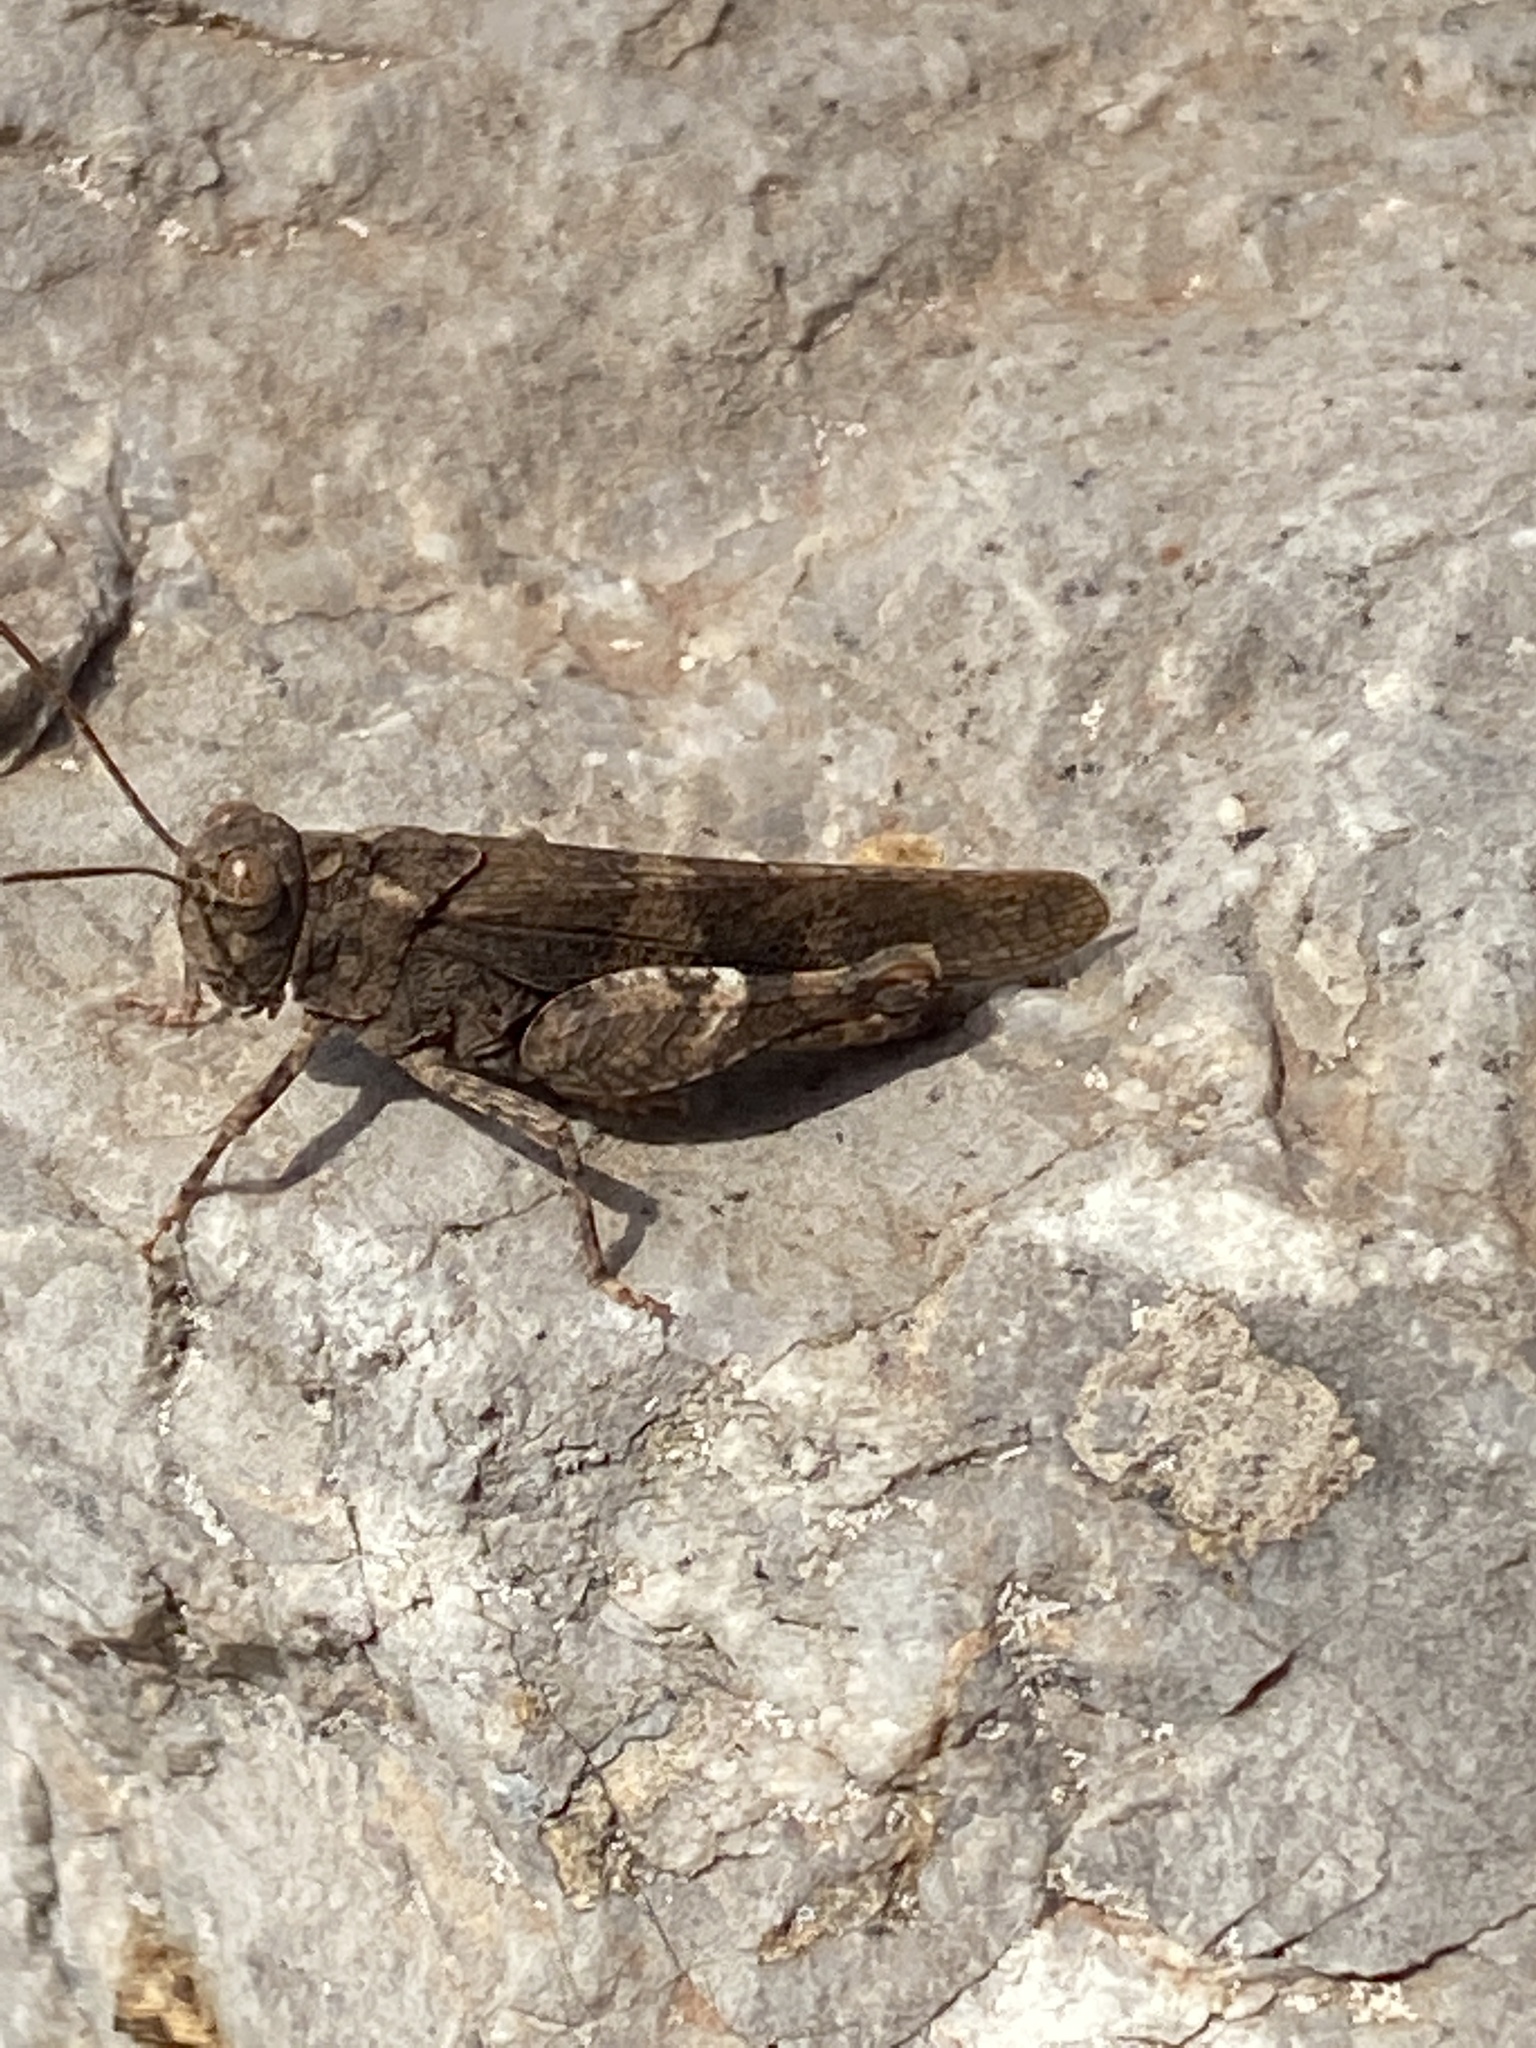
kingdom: Animalia
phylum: Arthropoda
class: Insecta
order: Orthoptera
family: Acrididae
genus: Oedipoda
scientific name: Oedipoda
